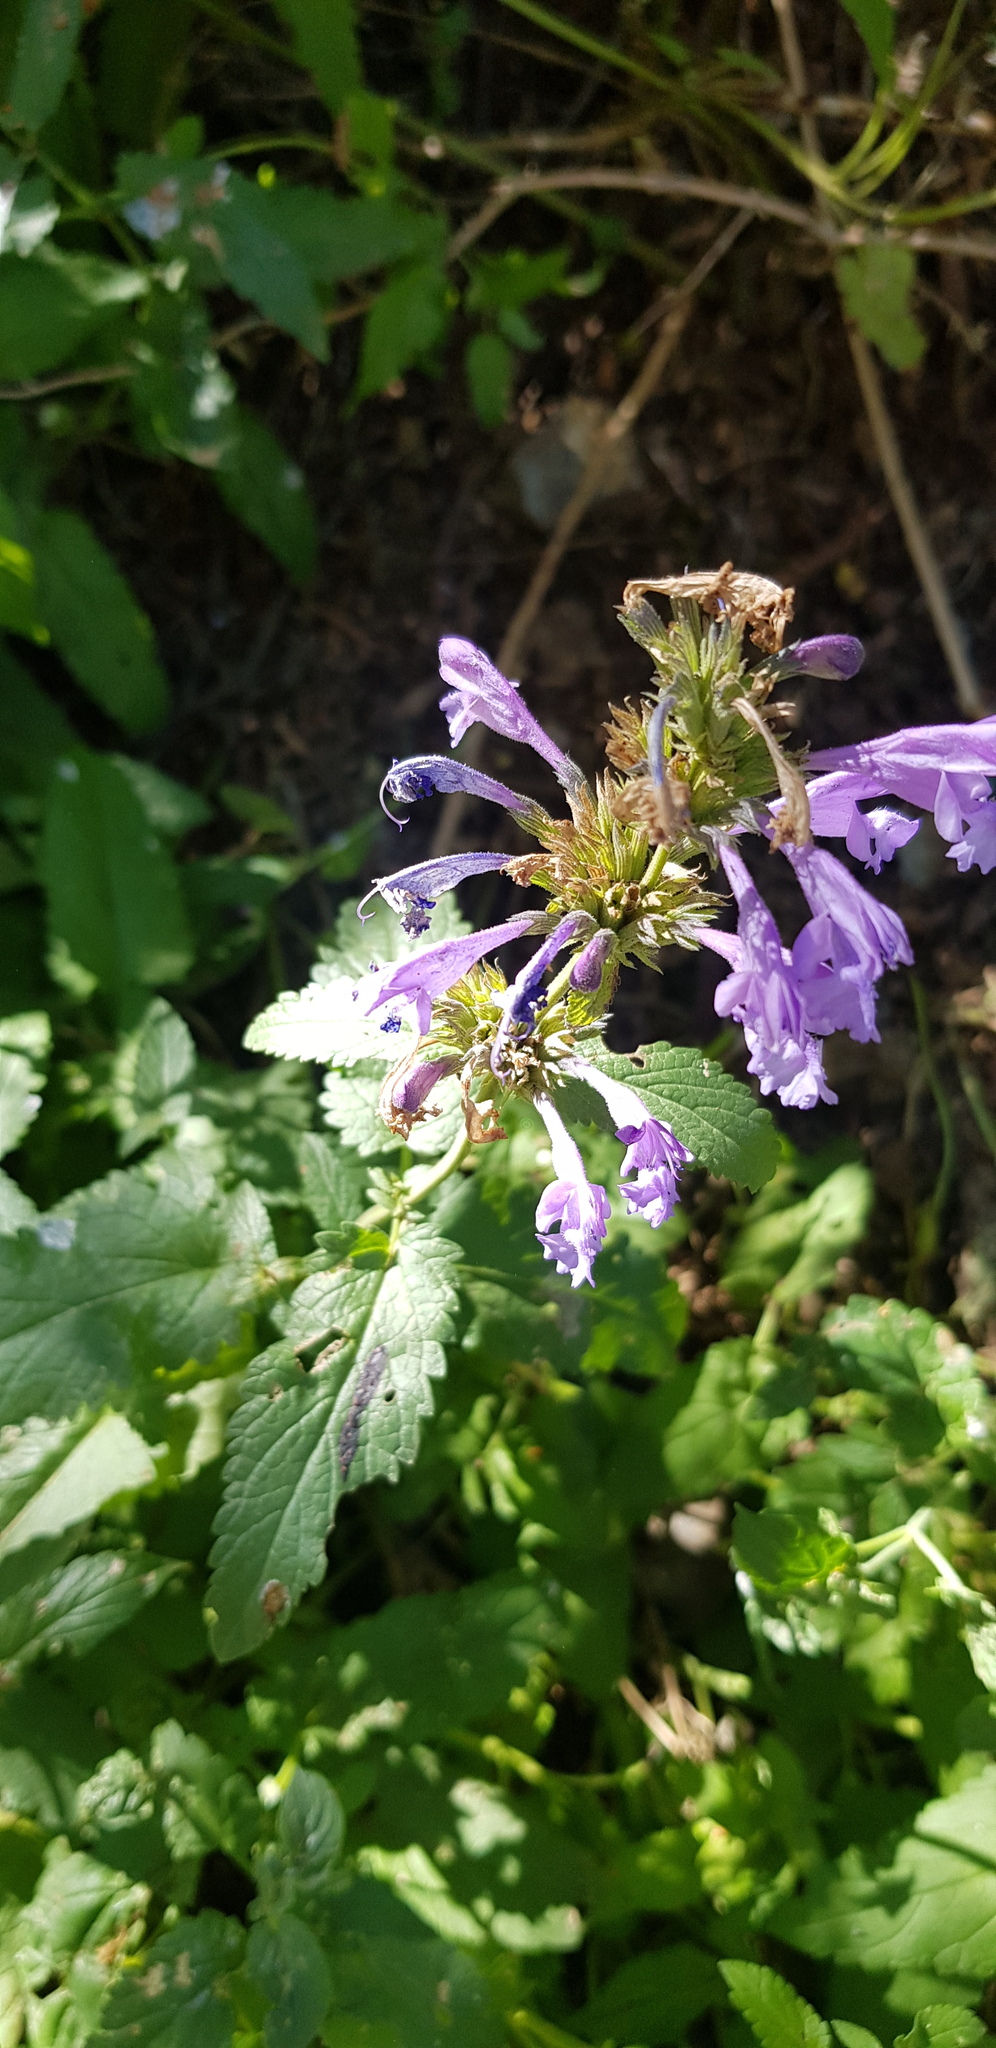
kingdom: Plantae
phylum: Tracheophyta
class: Magnoliopsida
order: Lamiales
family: Lamiaceae
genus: Nepeta
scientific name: Nepeta sibirica
